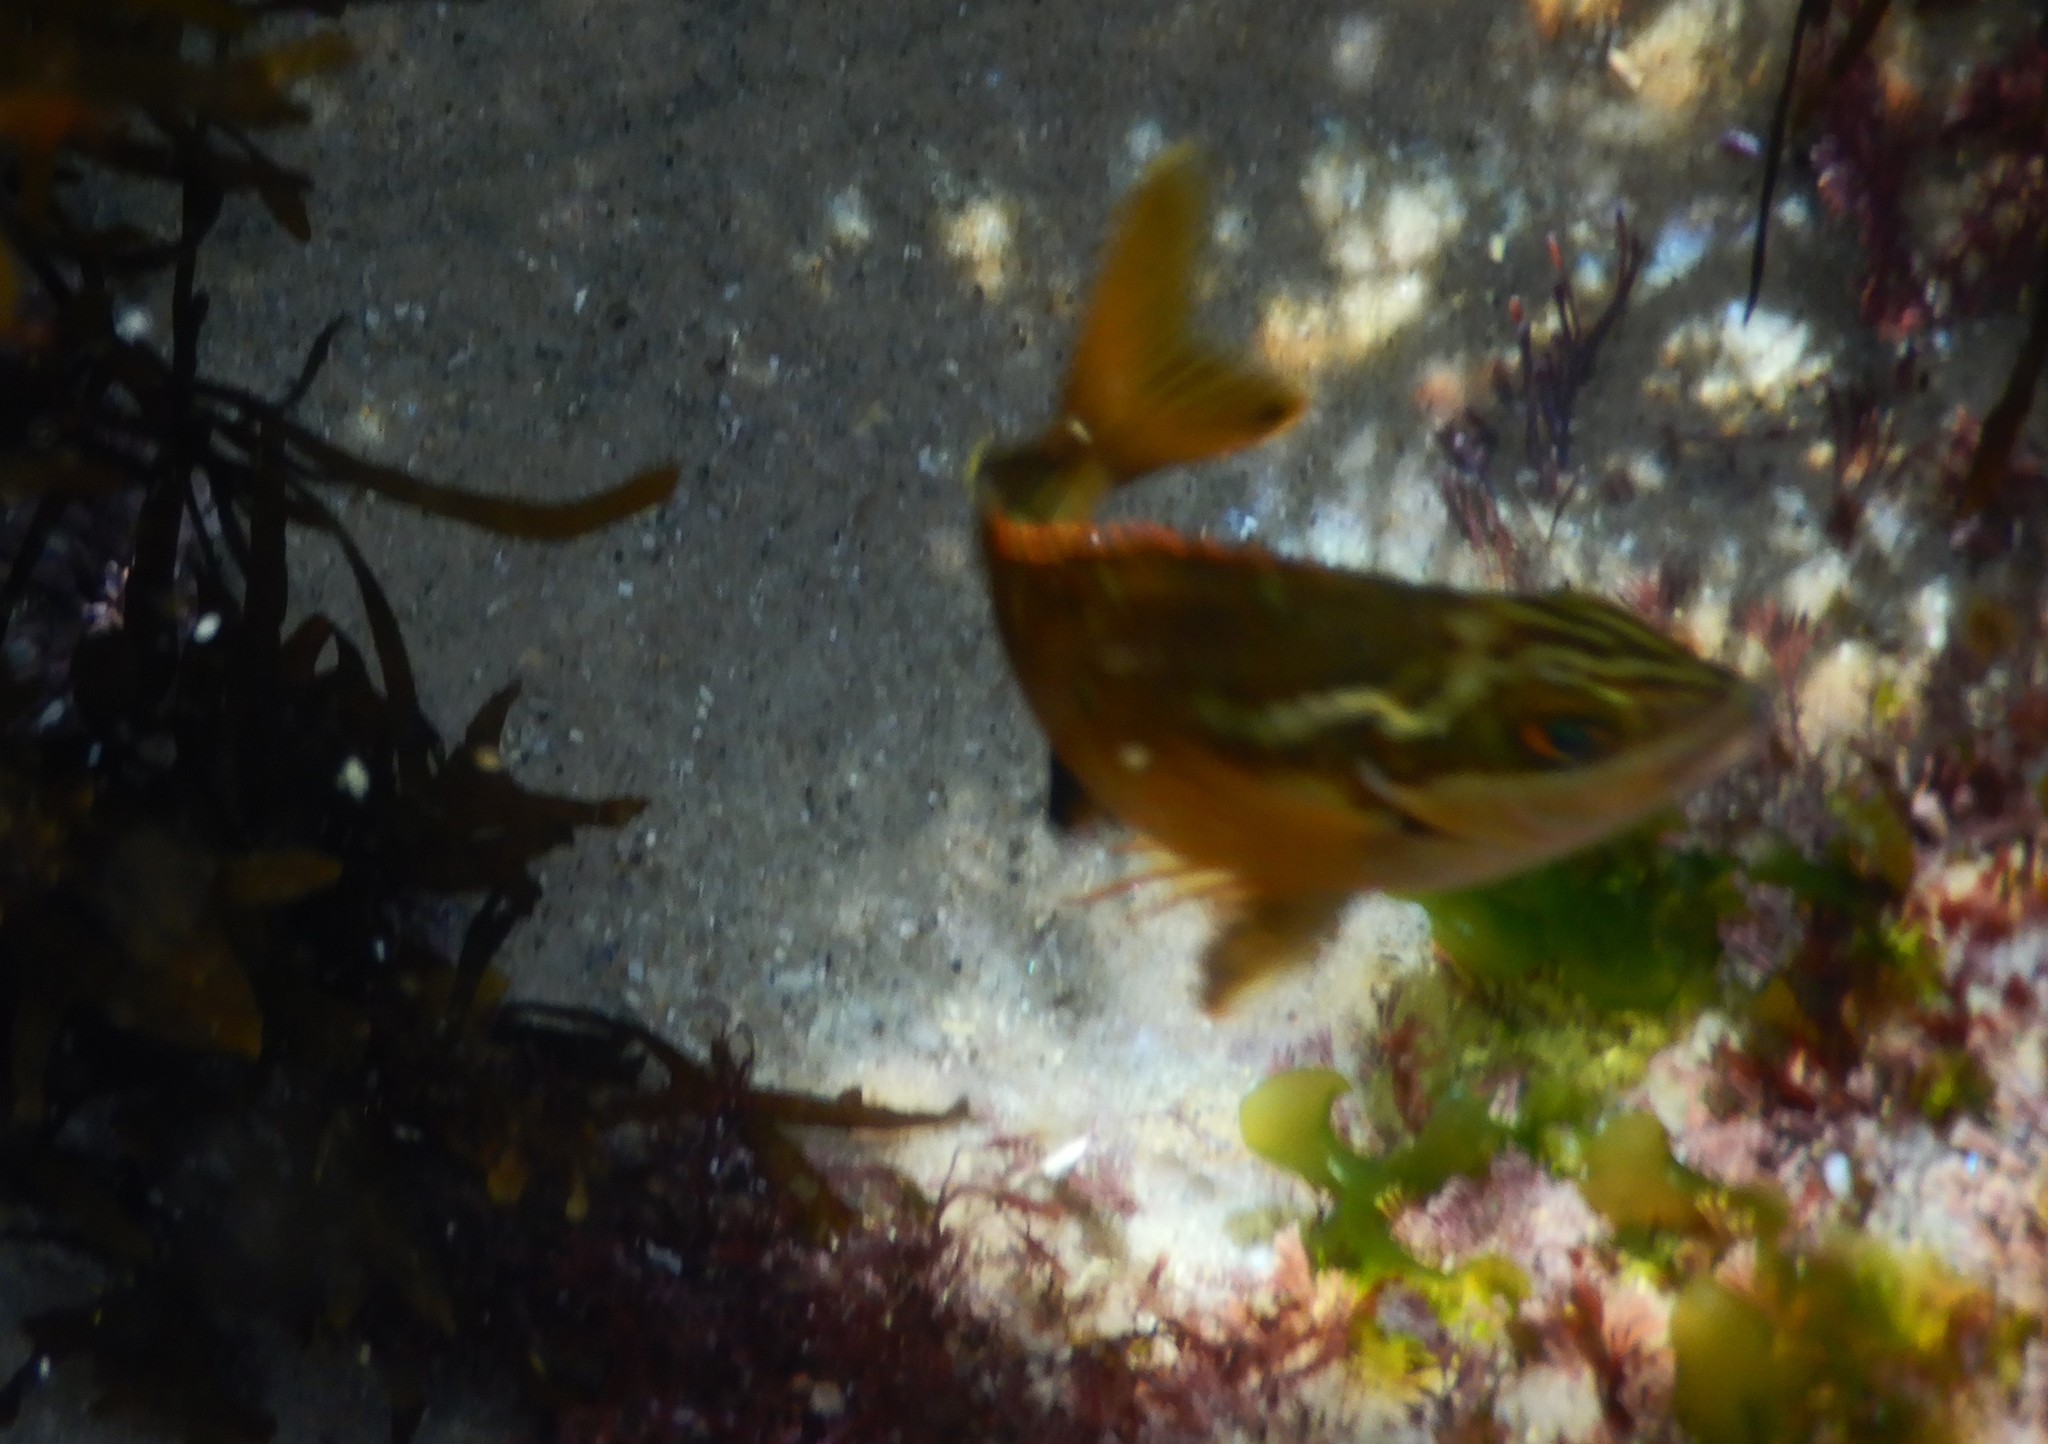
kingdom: Animalia
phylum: Chordata
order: Perciformes
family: Latridae
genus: Morwong
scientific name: Morwong fuscus
